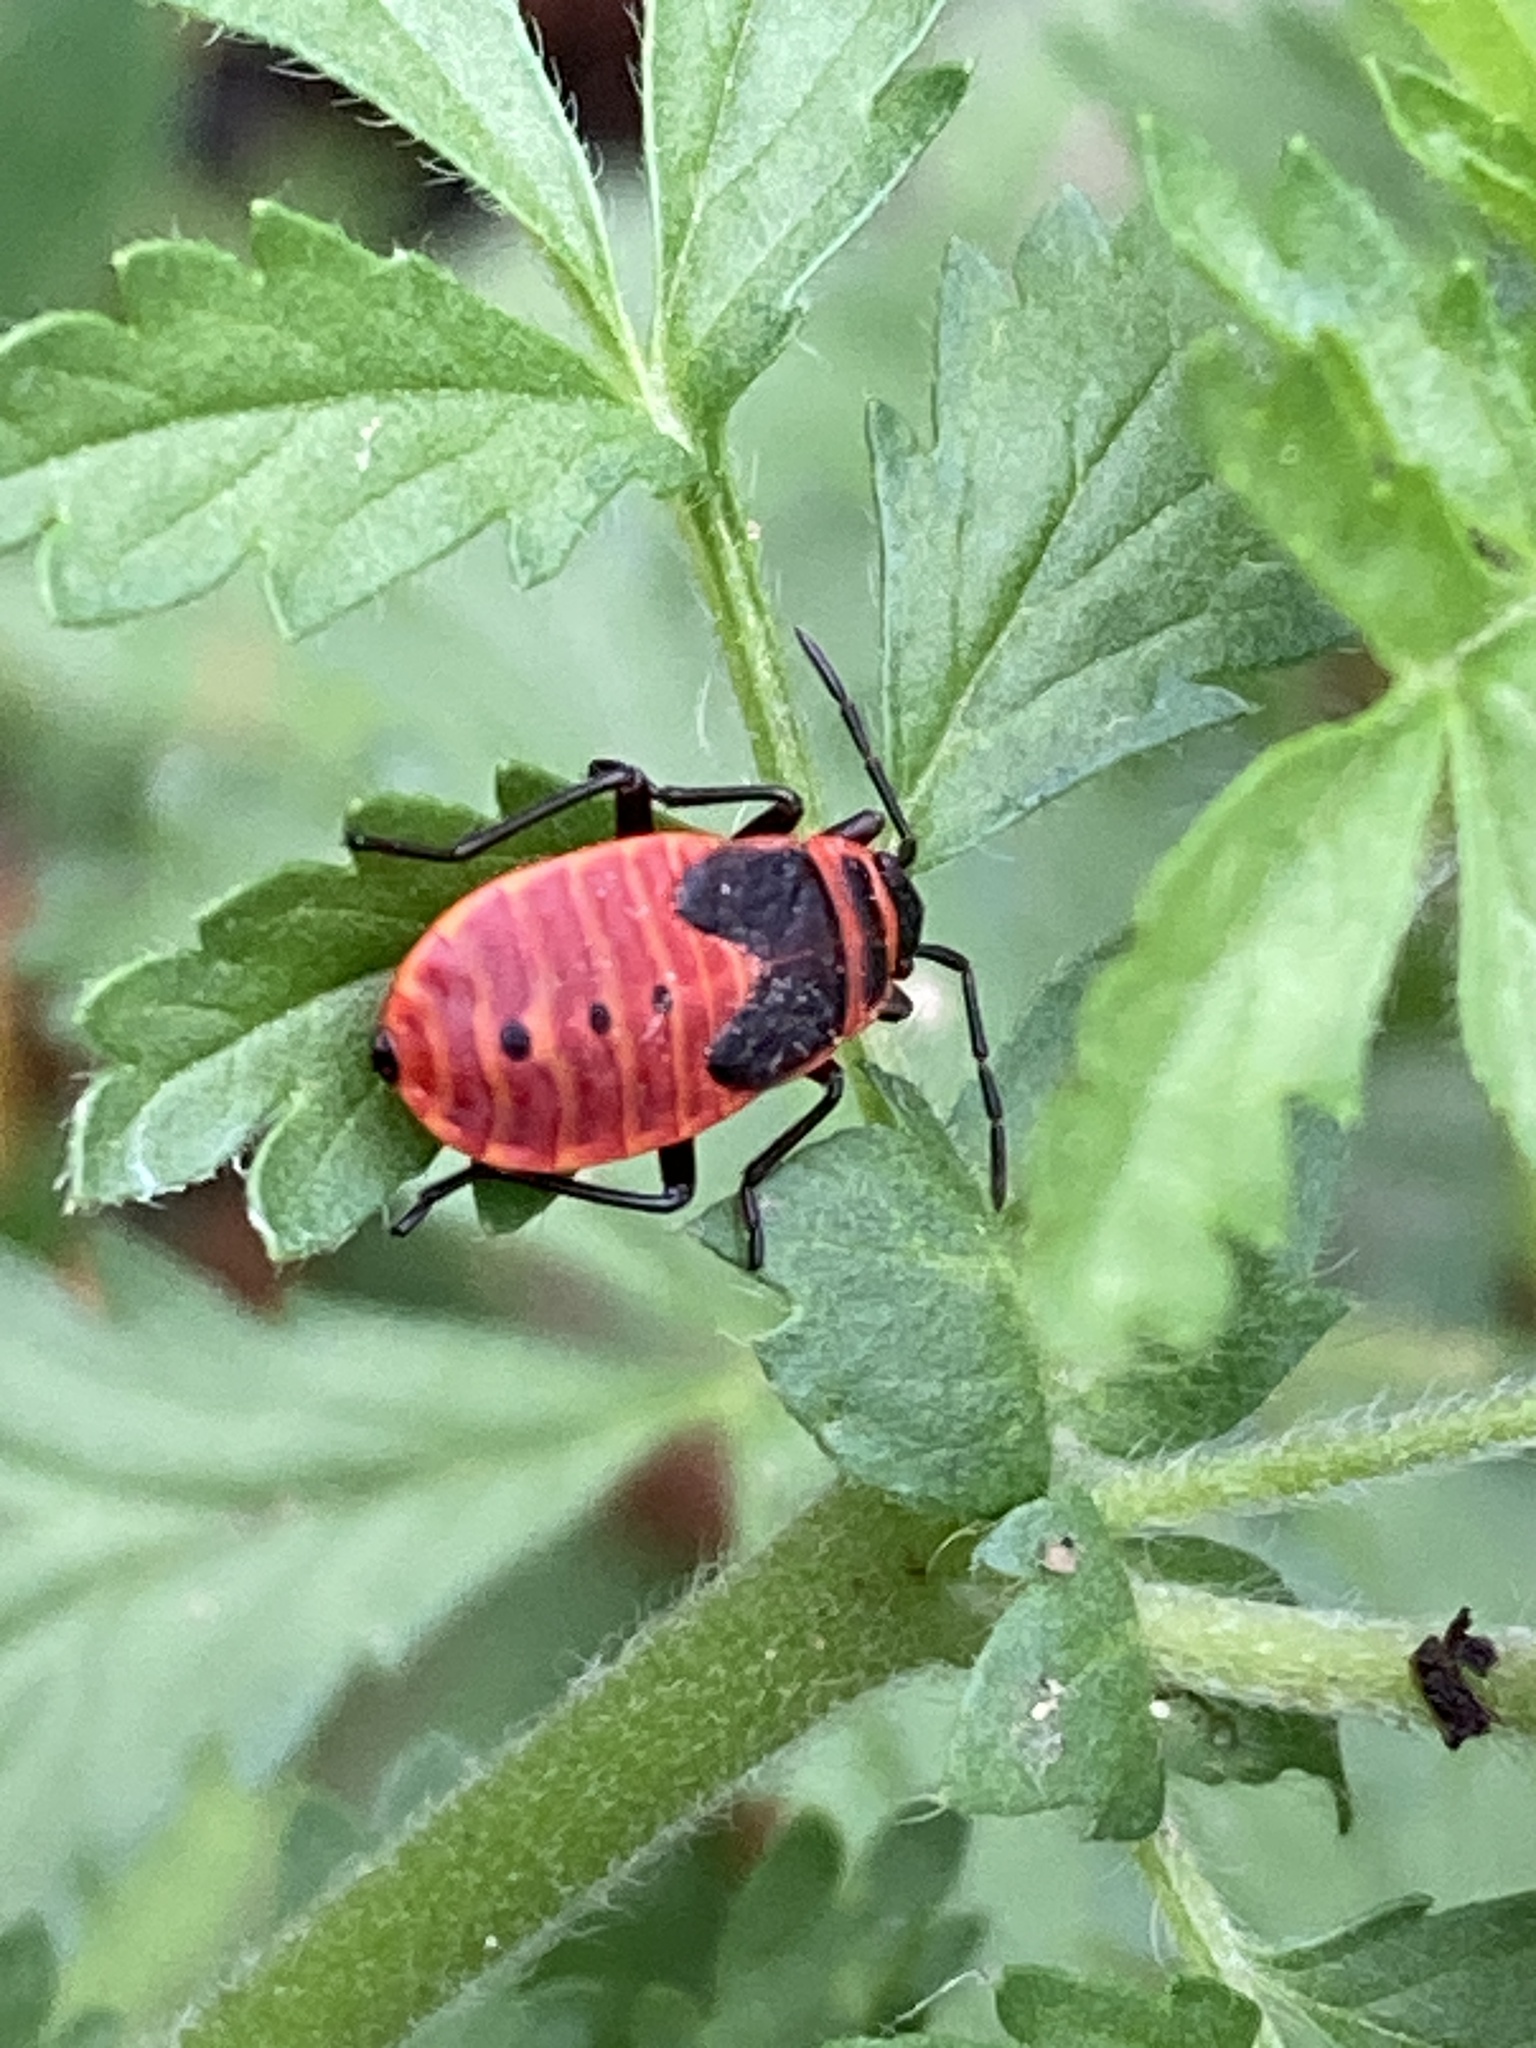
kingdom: Animalia
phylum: Arthropoda
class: Insecta
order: Hemiptera
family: Pyrrhocoridae
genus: Pyrrhocoris
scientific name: Pyrrhocoris apterus
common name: Firebug
